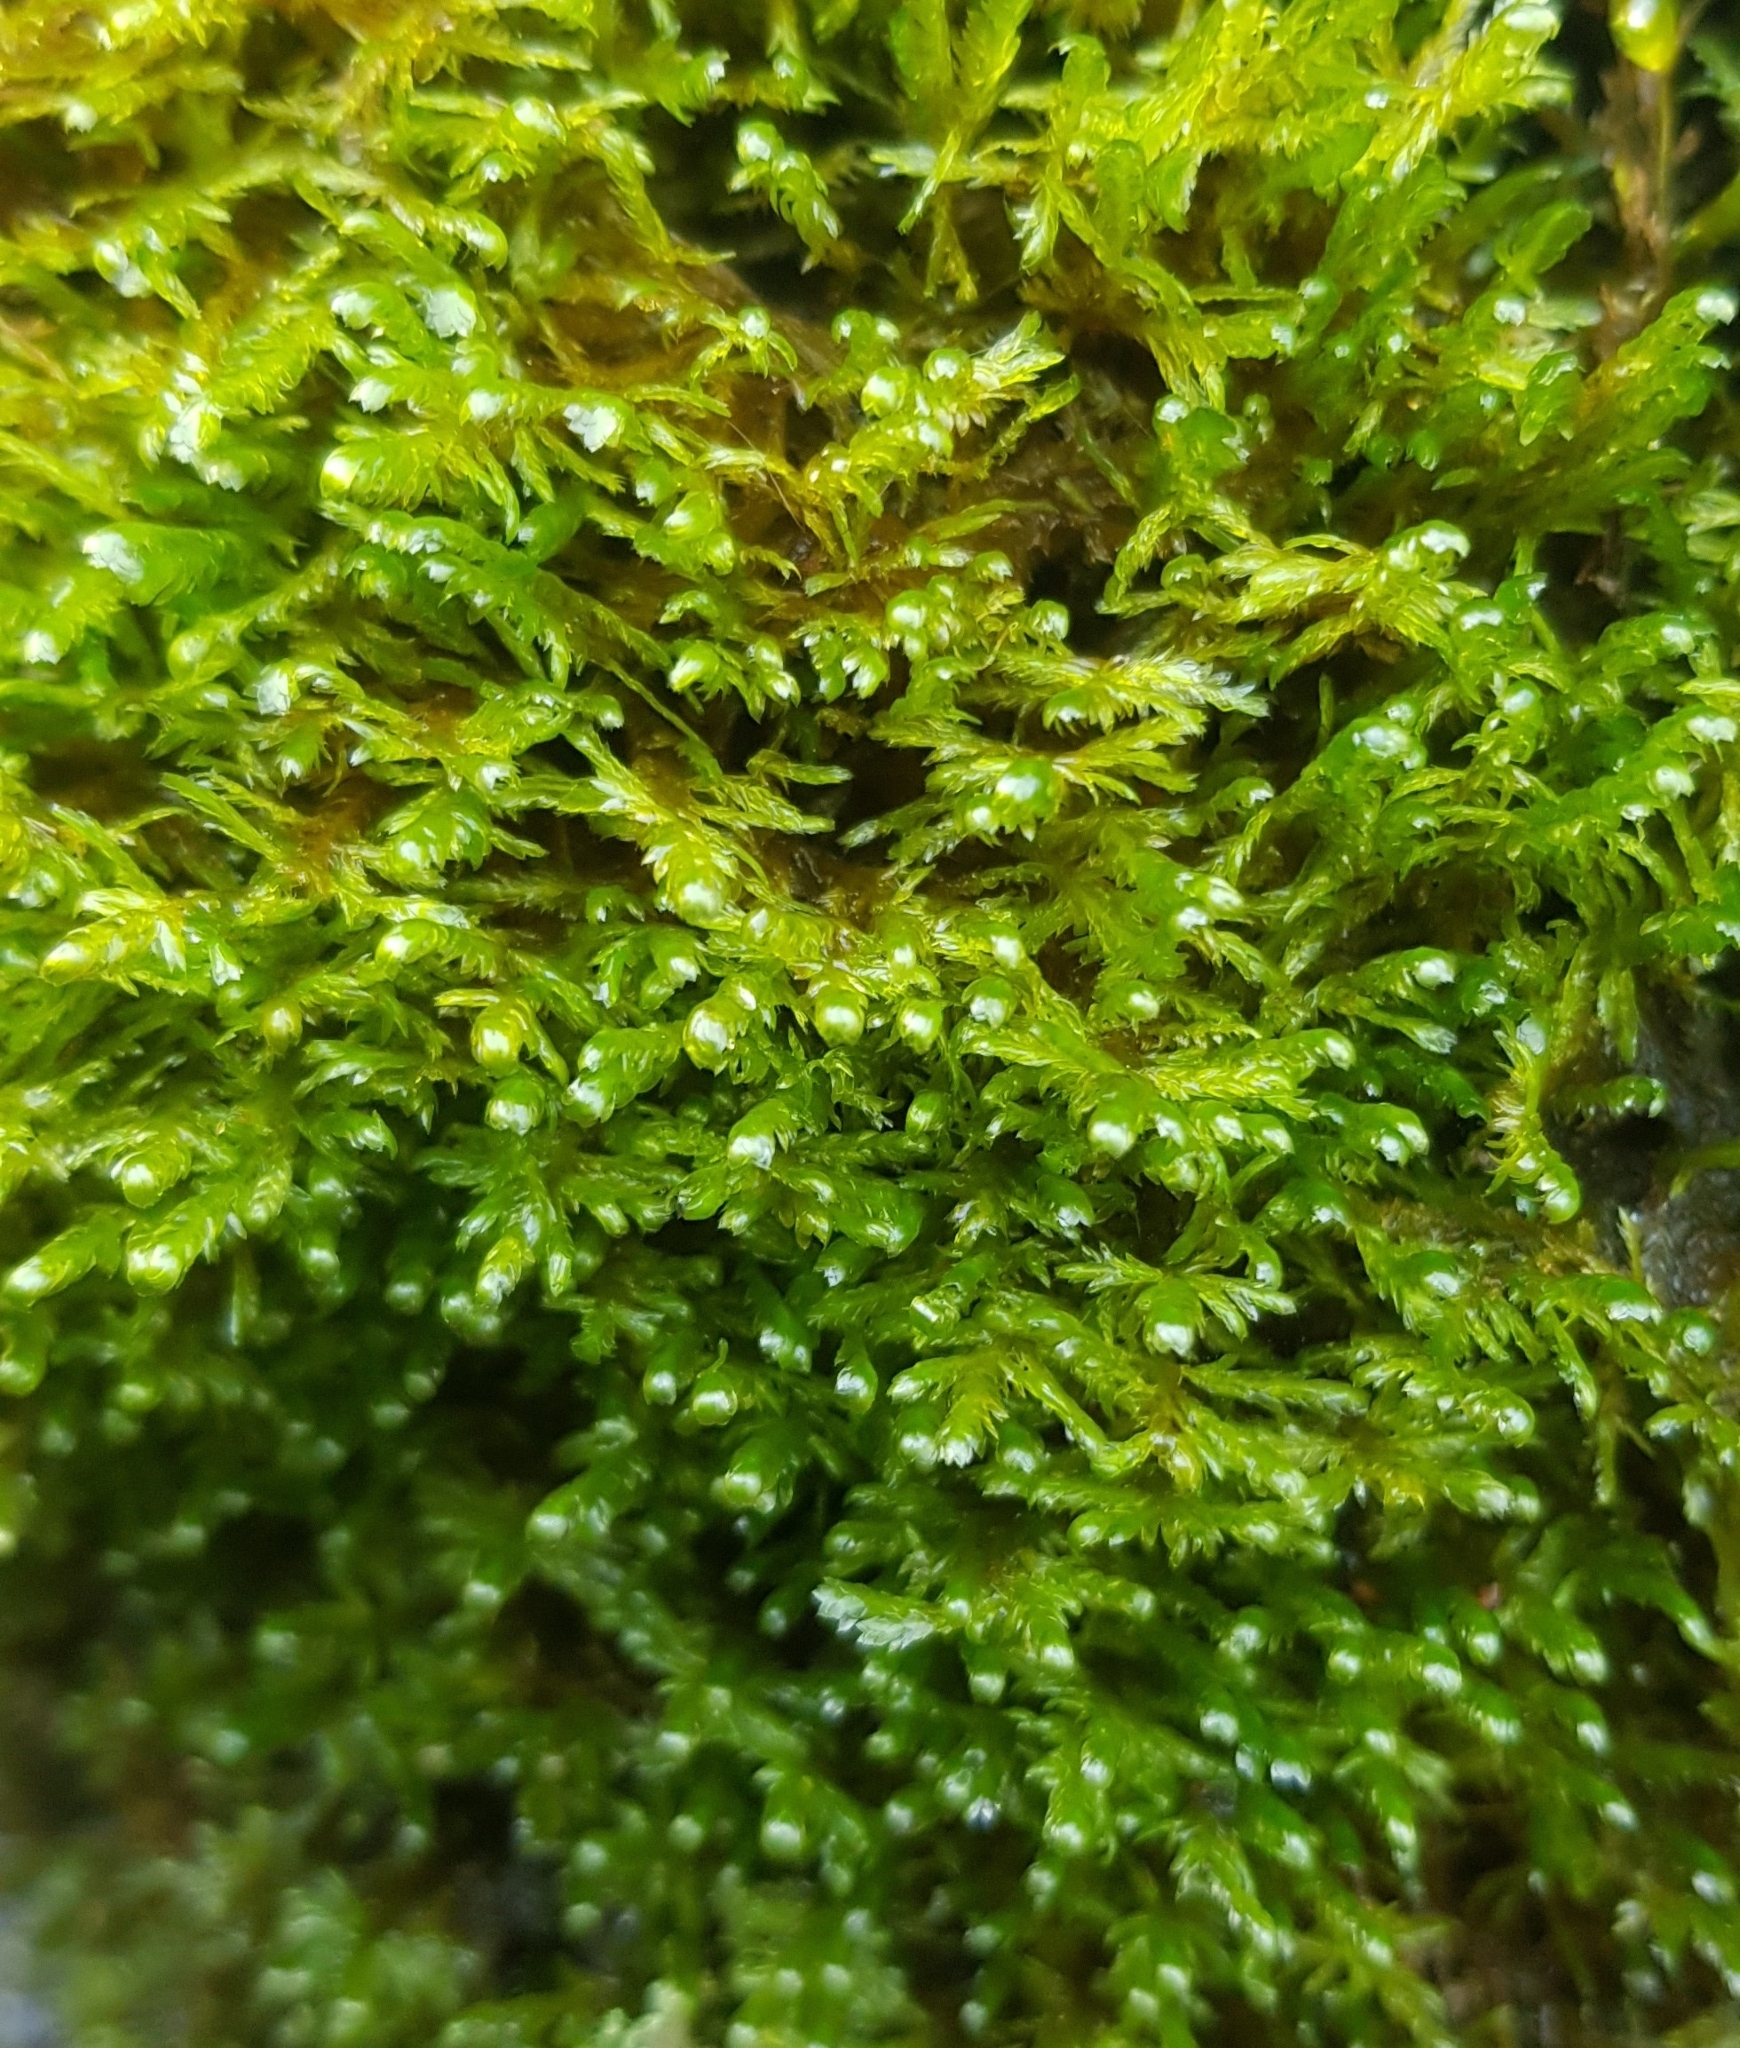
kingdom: Plantae
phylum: Bryophyta
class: Bryopsida
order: Hypnales
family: Neckeraceae
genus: Alleniella
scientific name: Alleniella complanata
